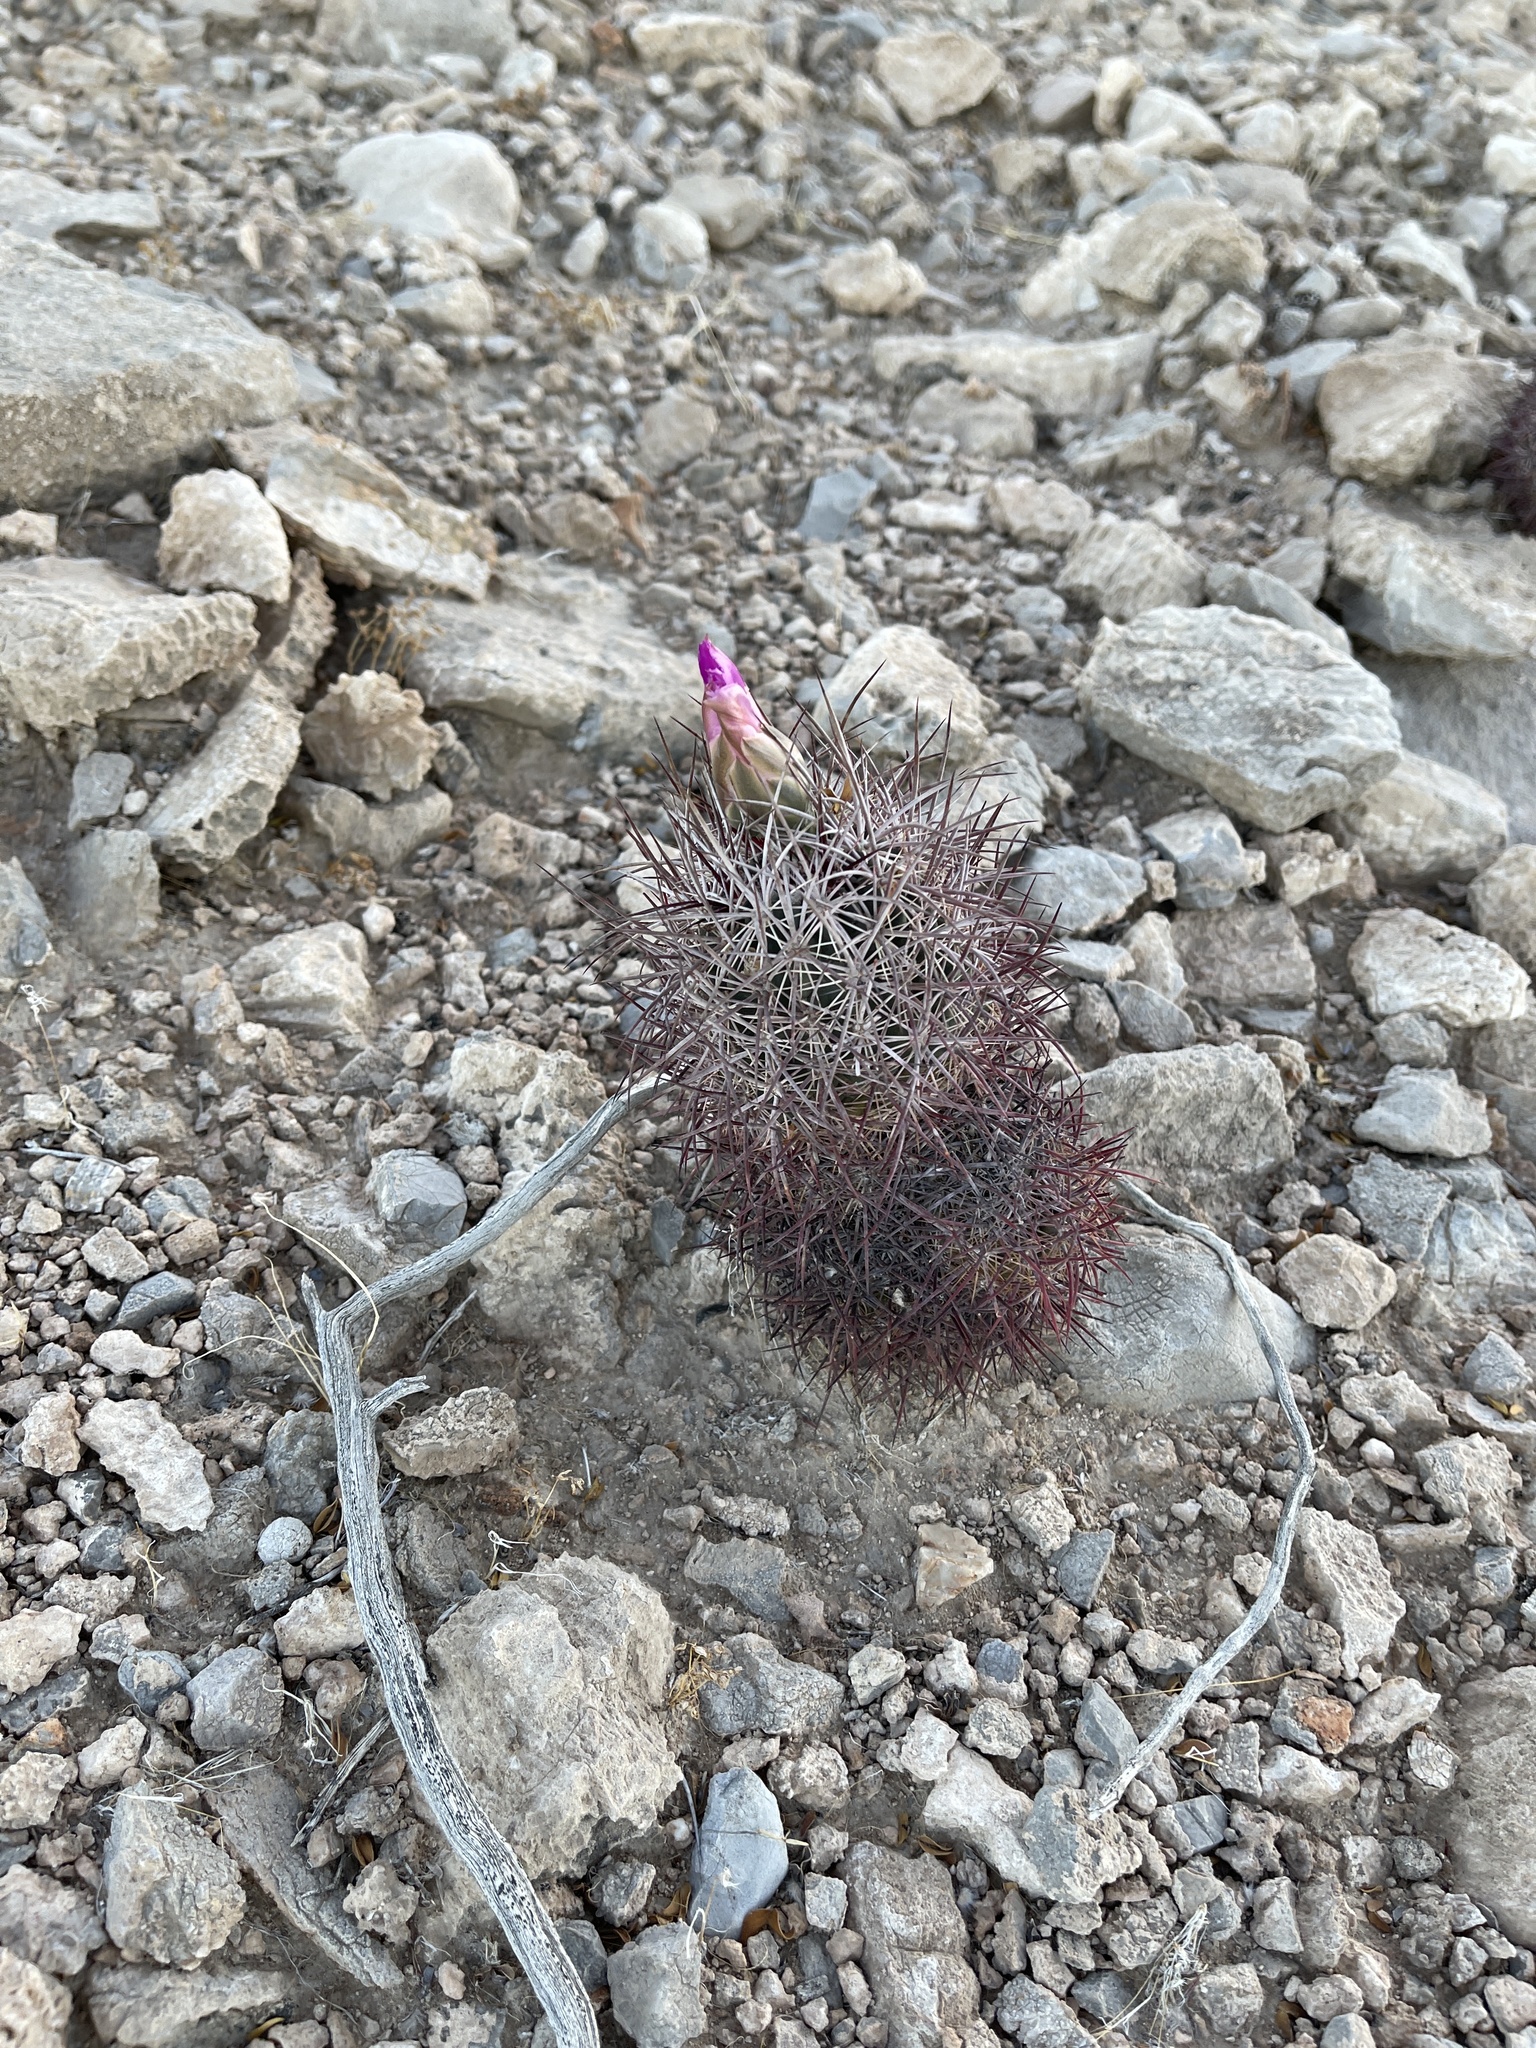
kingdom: Plantae
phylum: Tracheophyta
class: Magnoliopsida
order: Caryophyllales
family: Cactaceae
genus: Sclerocactus
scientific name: Sclerocactus johnsonii
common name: Eight-spine fishhook cactus
